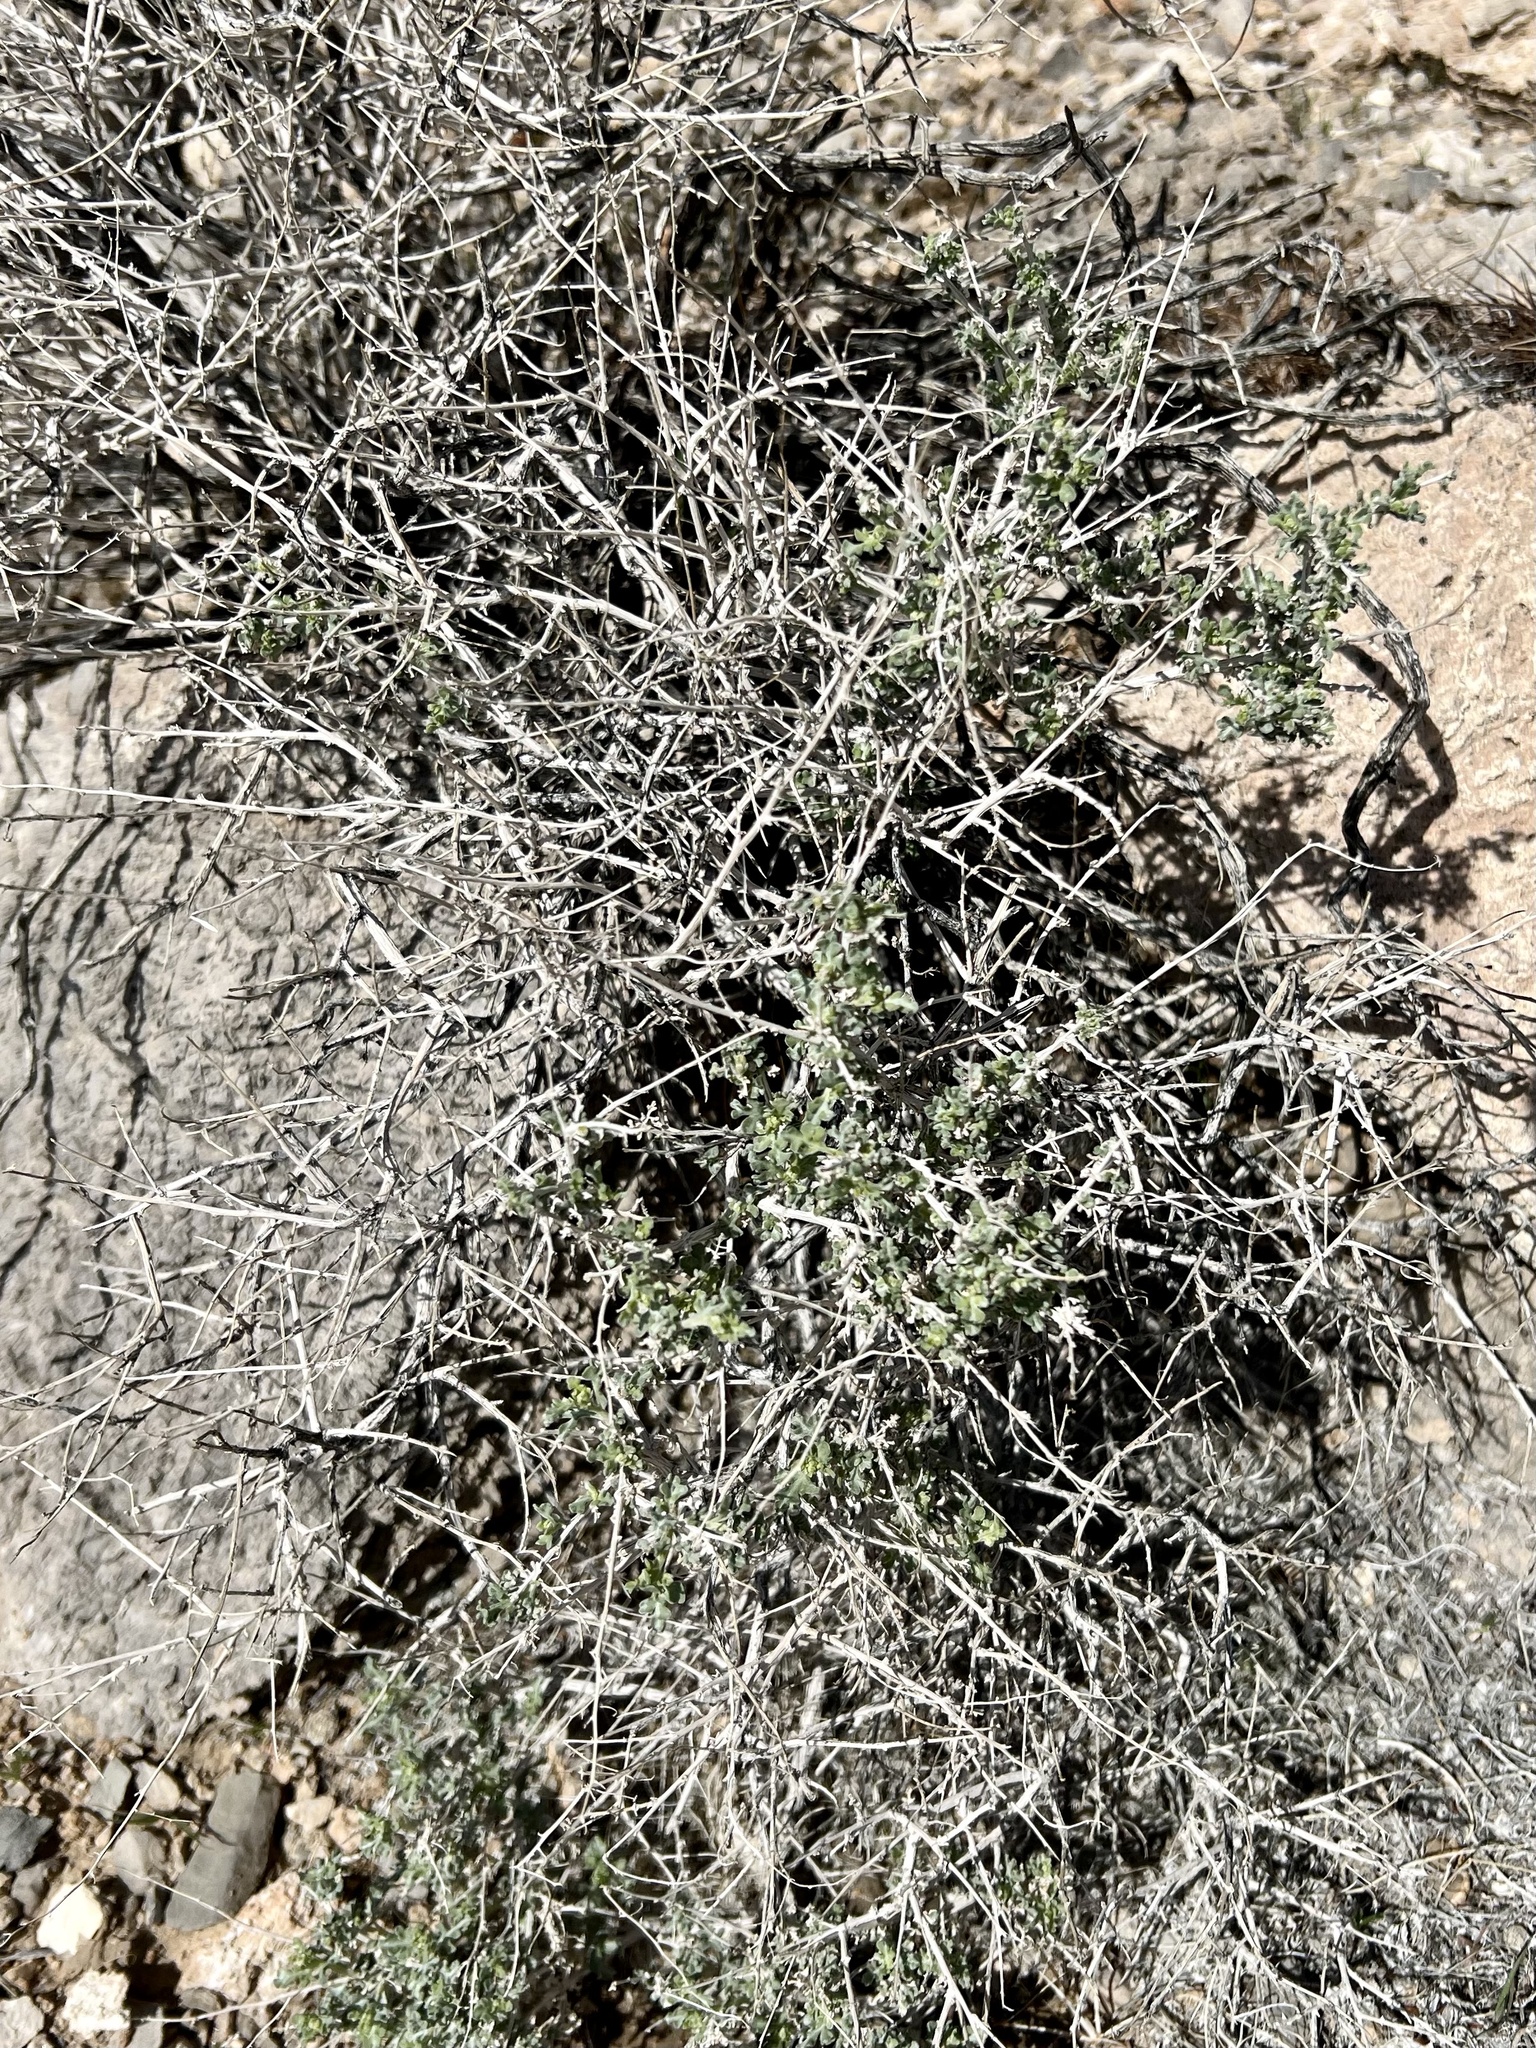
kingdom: Plantae
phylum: Tracheophyta
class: Magnoliopsida
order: Asterales
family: Asteraceae
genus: Ambrosia
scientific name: Ambrosia dumosa
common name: Bur-sage
